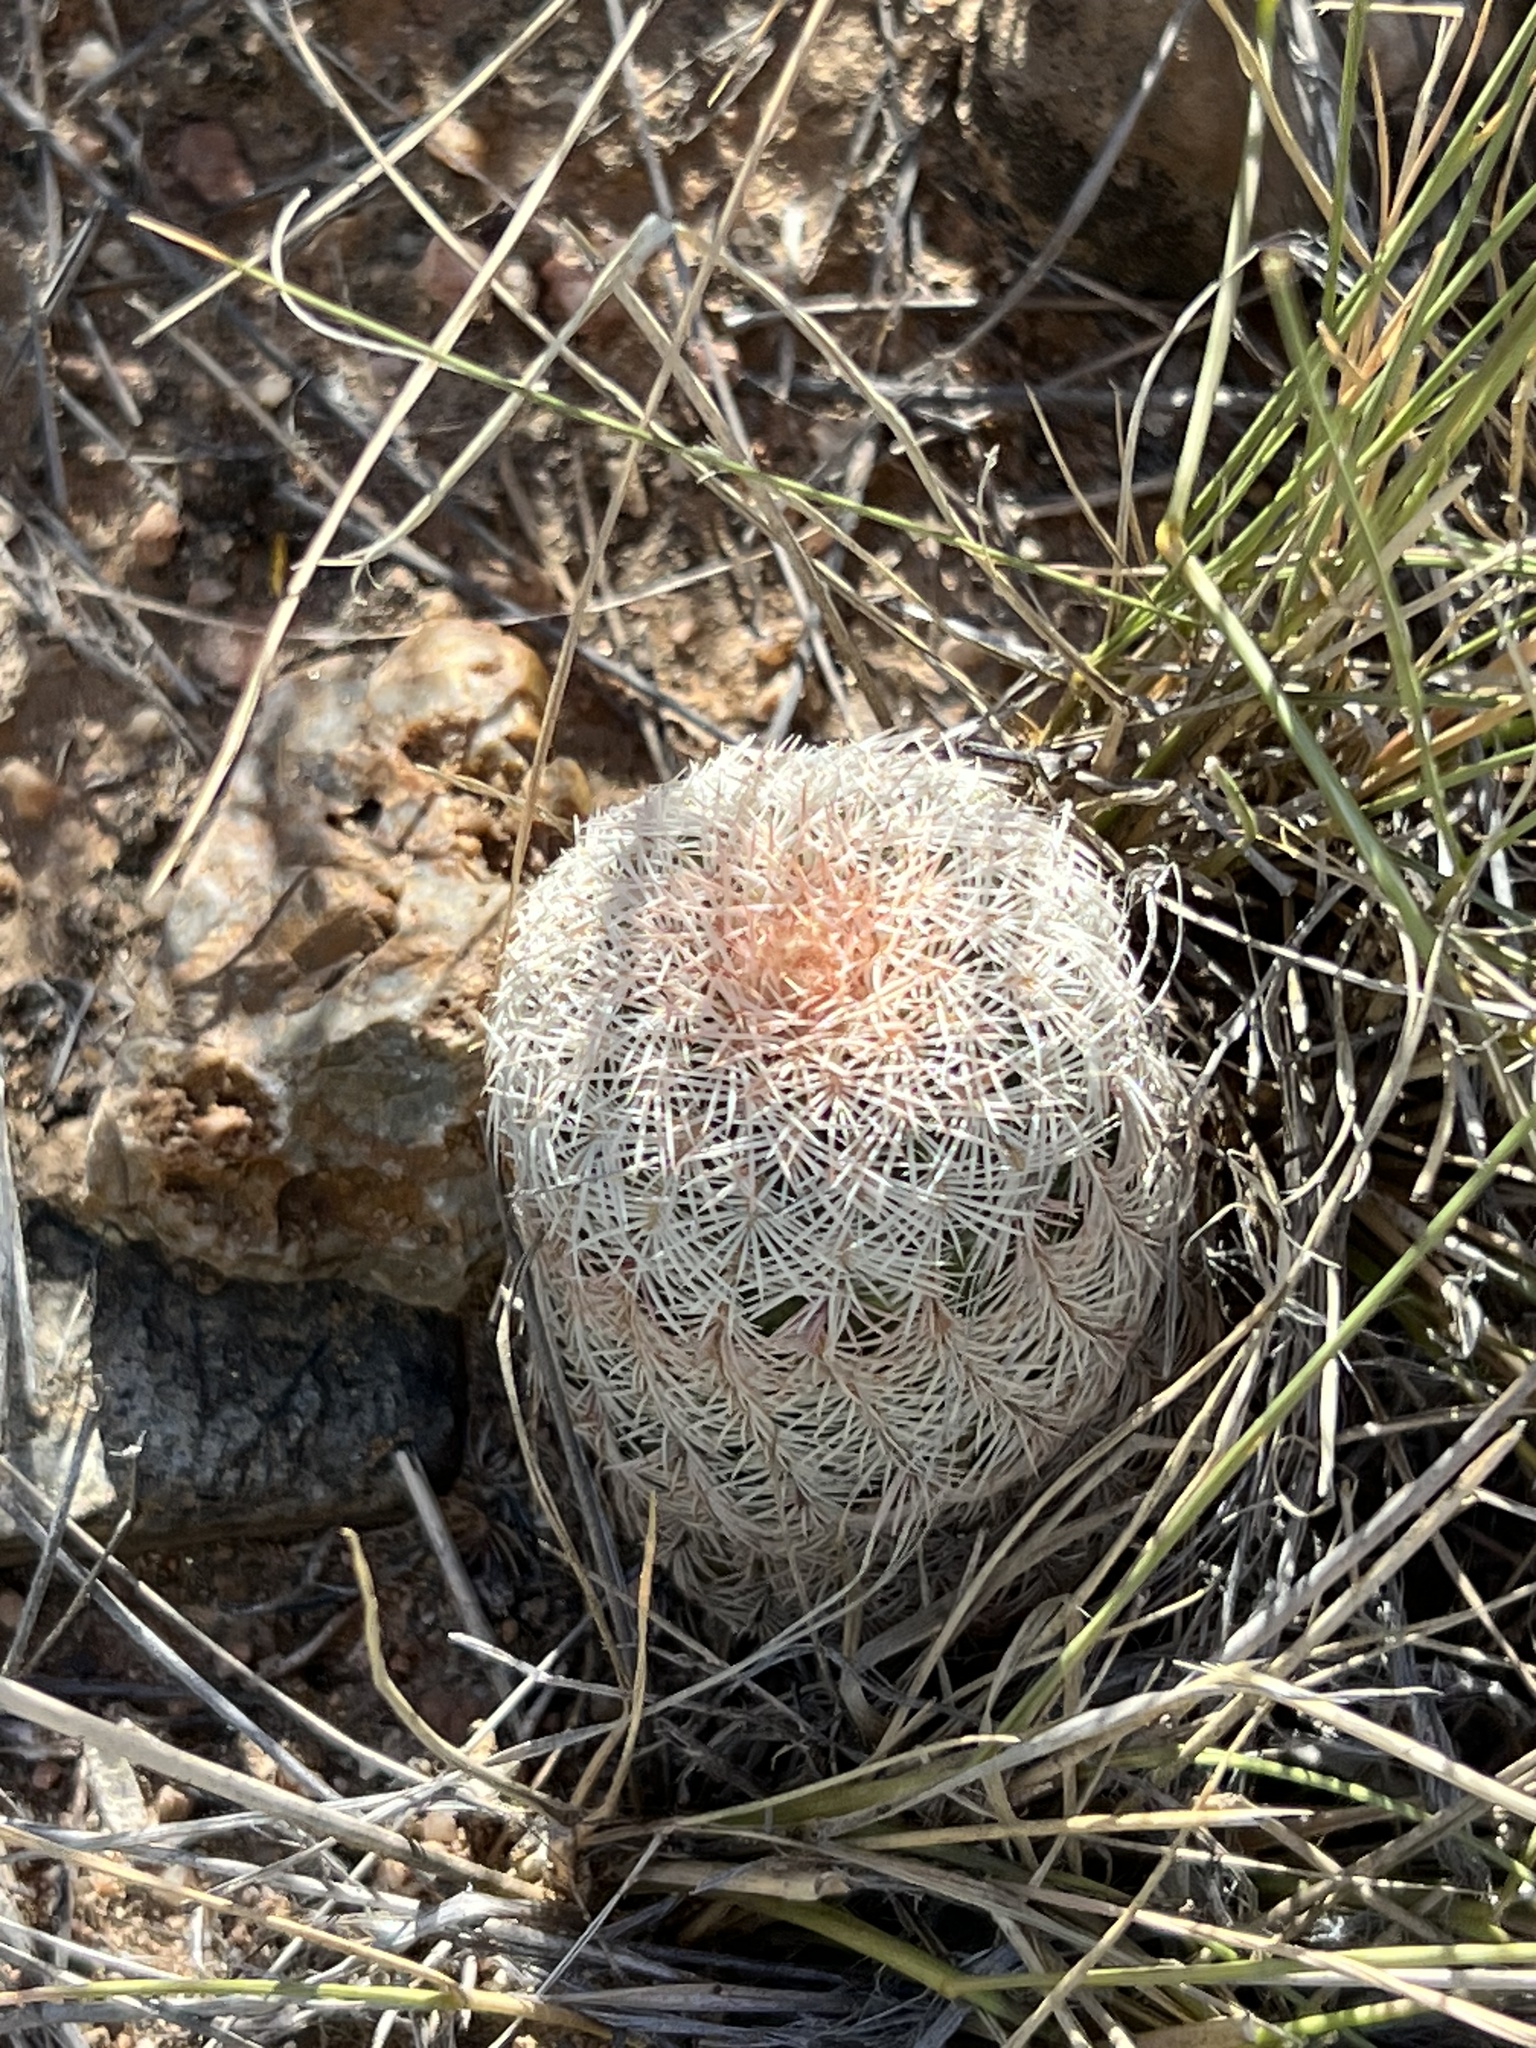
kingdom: Plantae
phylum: Tracheophyta
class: Magnoliopsida
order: Caryophyllales
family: Cactaceae
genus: Echinocereus
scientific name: Echinocereus rigidissimus
